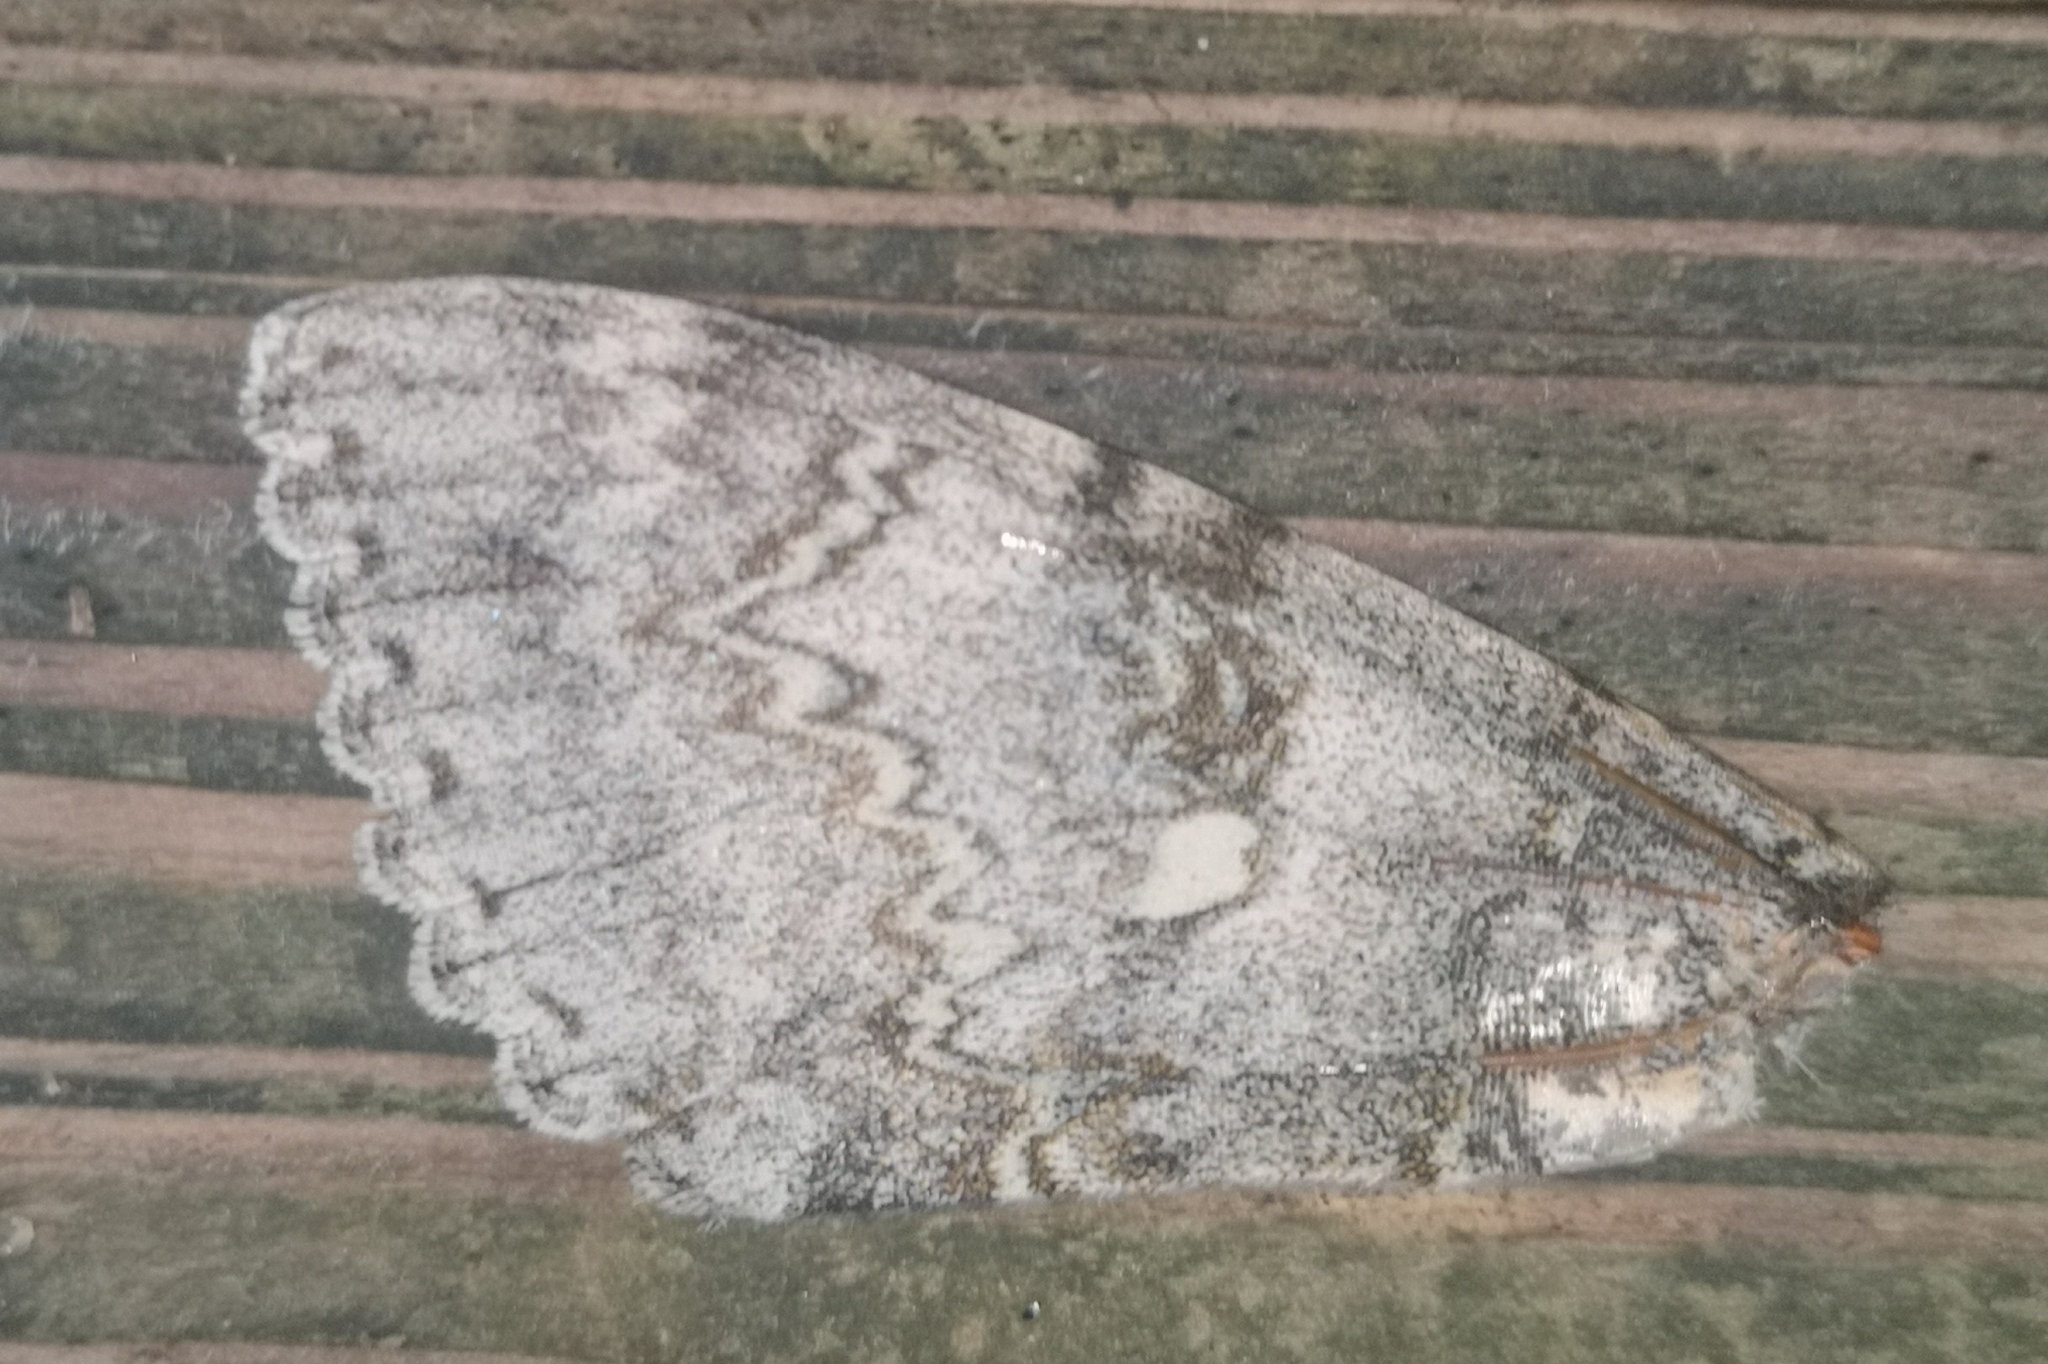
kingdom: Animalia
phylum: Arthropoda
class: Insecta
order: Lepidoptera
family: Erebidae
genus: Catocala
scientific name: Catocala fraxini
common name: Clifden nonpareil
